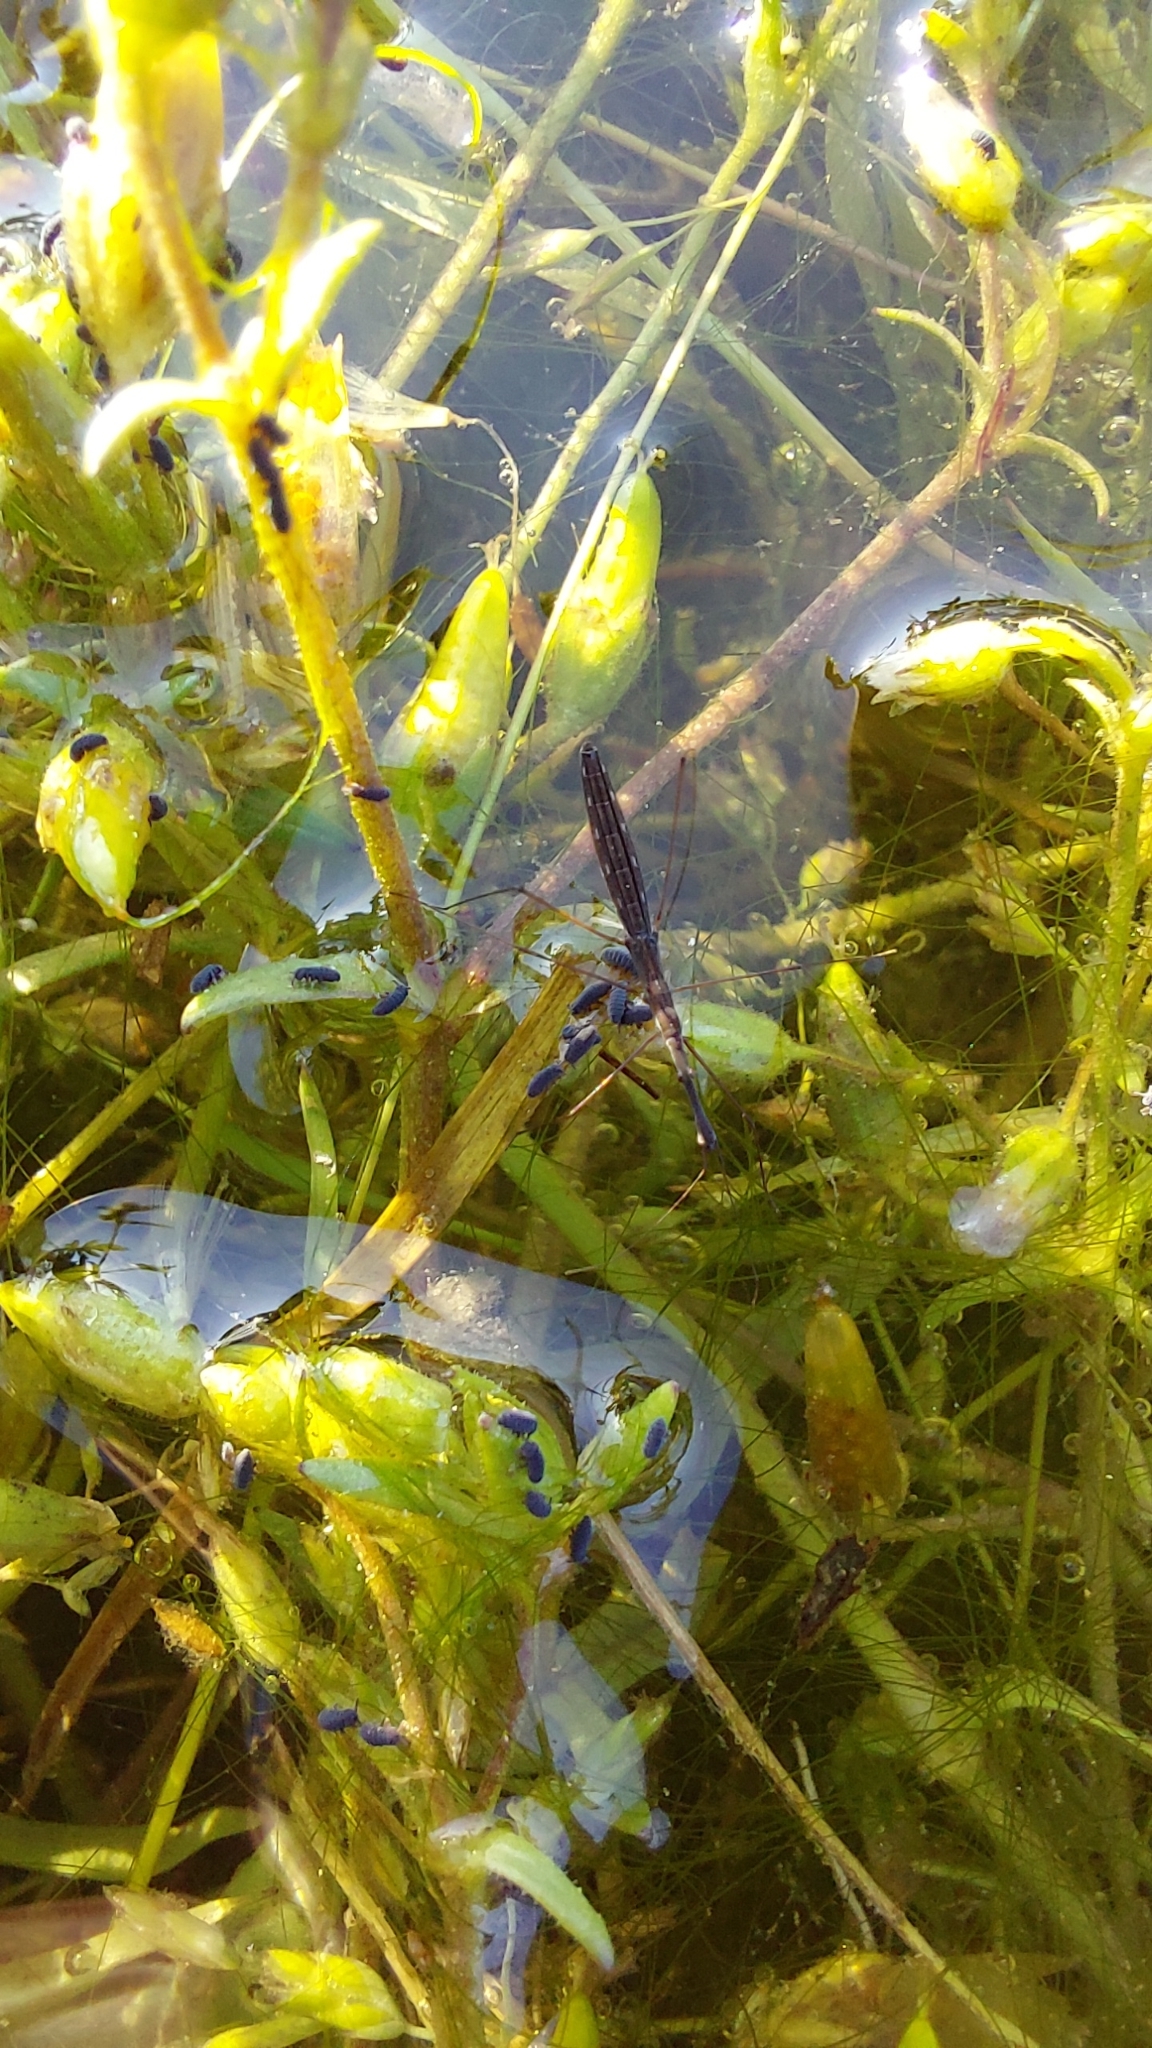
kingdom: Animalia
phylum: Arthropoda
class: Insecta
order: Hemiptera
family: Hydrometridae
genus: Hydrometra
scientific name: Hydrometra stagnorum
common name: Water measurer
